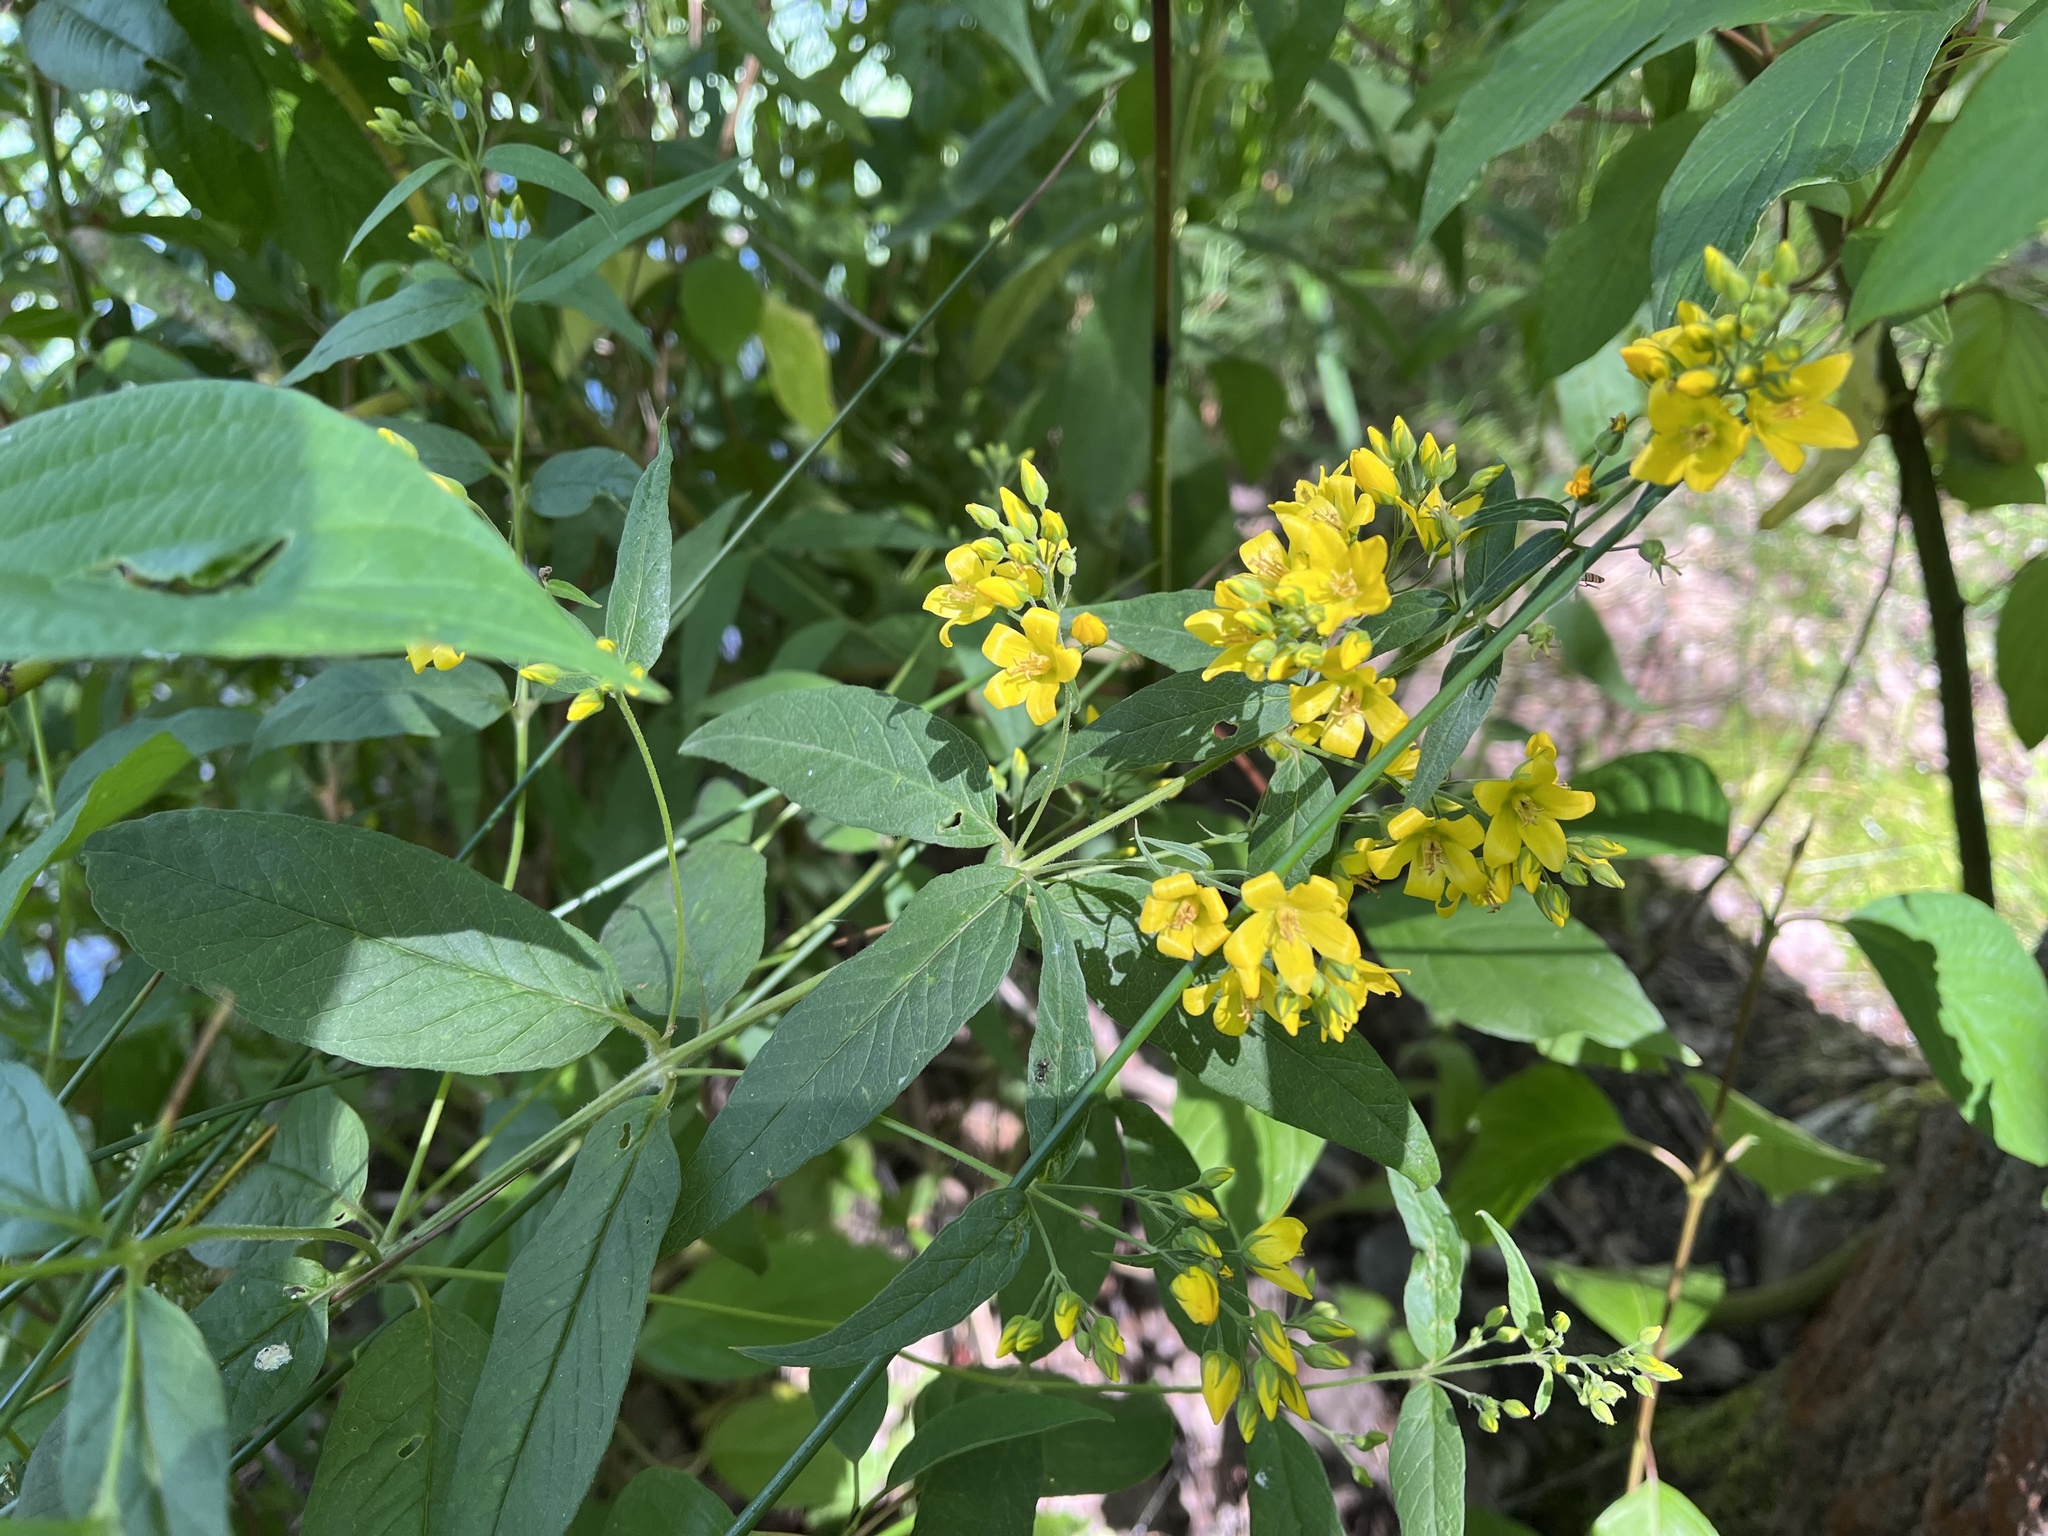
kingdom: Plantae
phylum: Tracheophyta
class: Magnoliopsida
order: Ericales
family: Primulaceae
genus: Lysimachia
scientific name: Lysimachia vulgaris
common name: Yellow loosestrife
